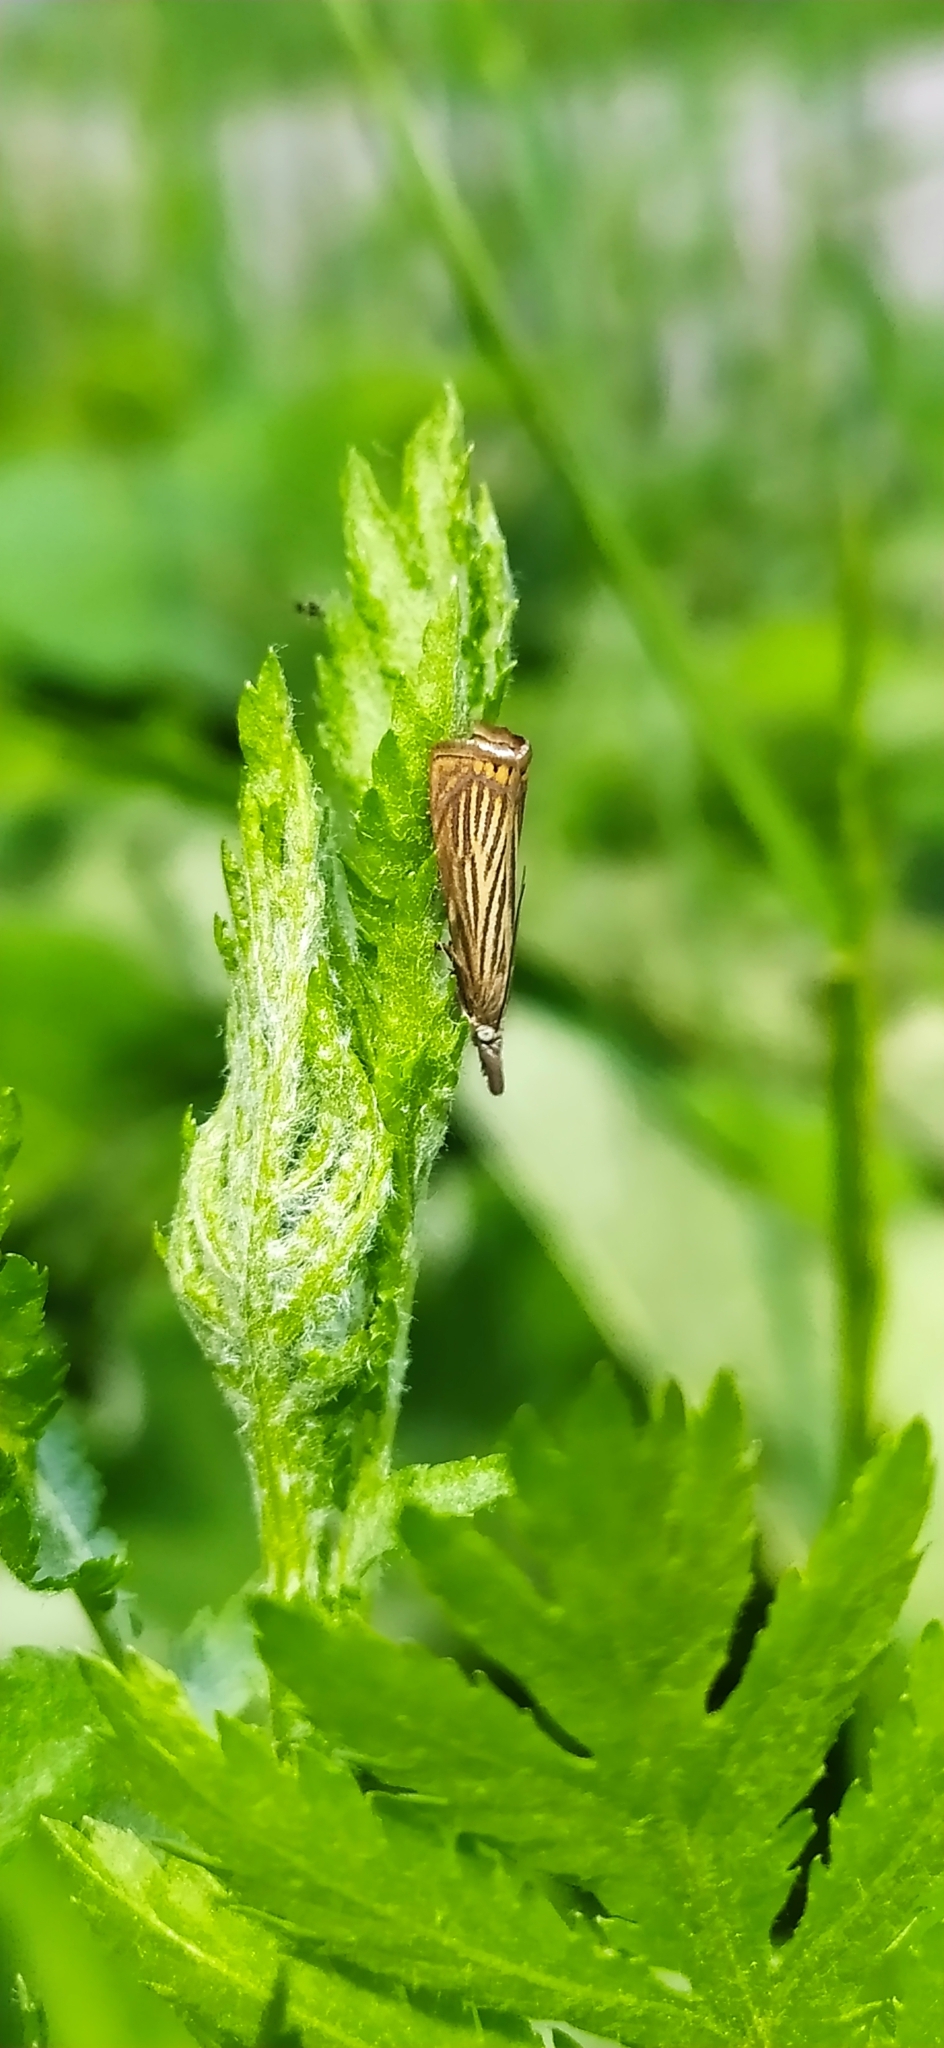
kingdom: Animalia
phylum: Arthropoda
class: Insecta
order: Lepidoptera
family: Crambidae
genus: Chrysoteuchia
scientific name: Chrysoteuchia culmella
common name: Garden grass-veneer
